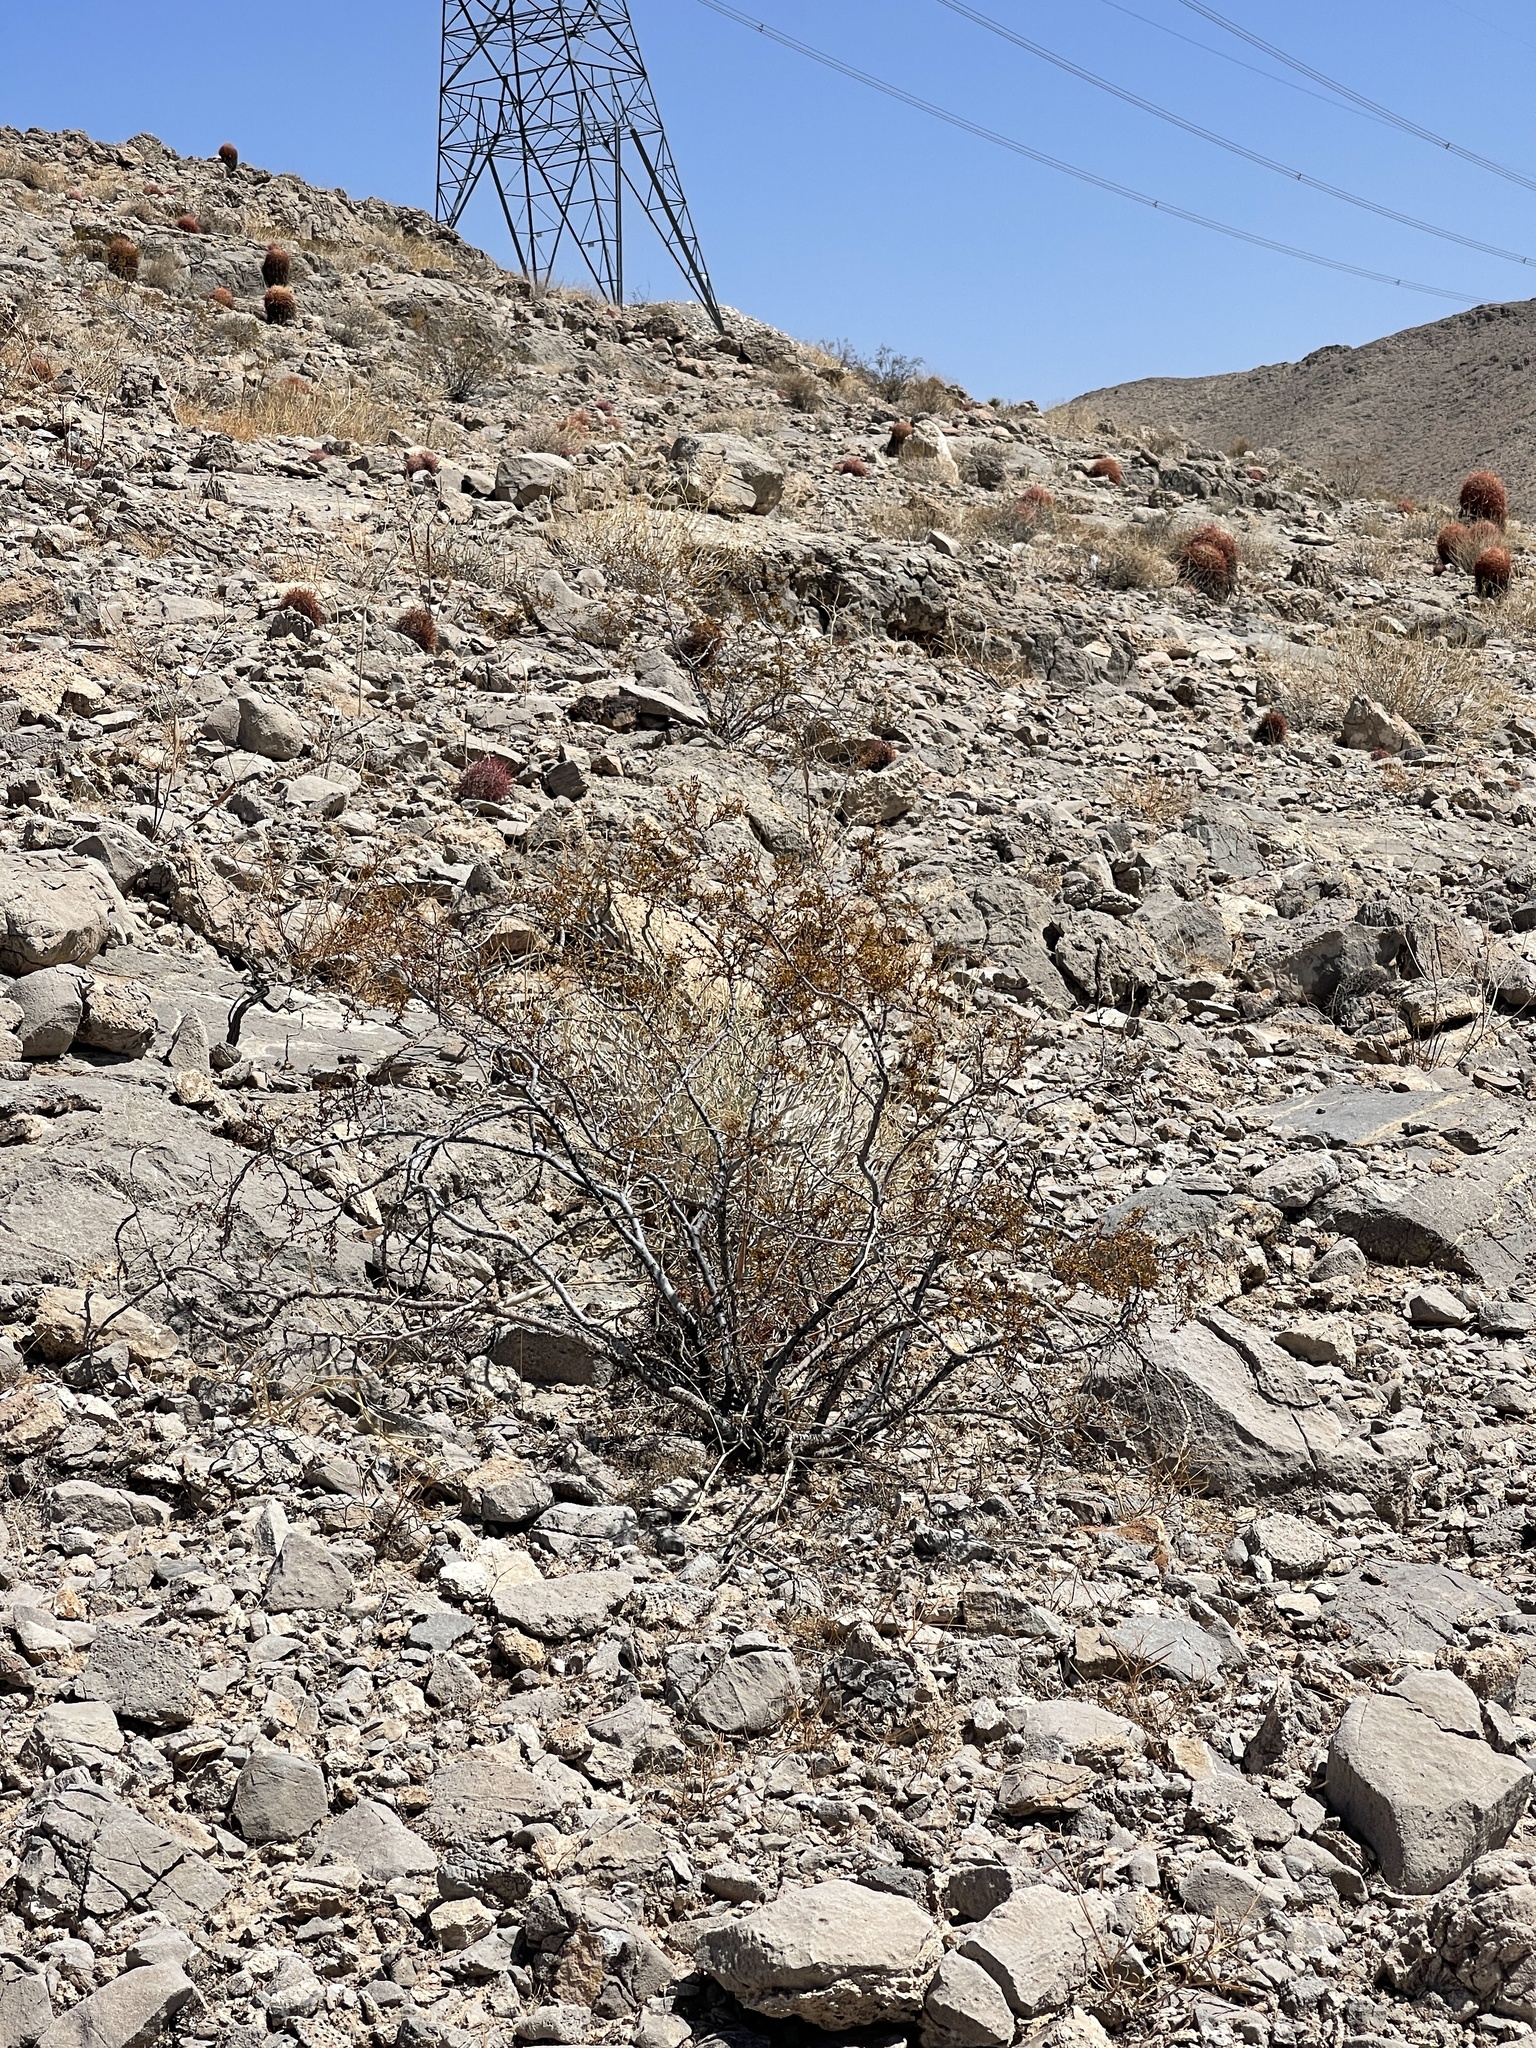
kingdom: Plantae
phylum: Tracheophyta
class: Magnoliopsida
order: Zygophyllales
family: Zygophyllaceae
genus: Larrea
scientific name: Larrea tridentata
